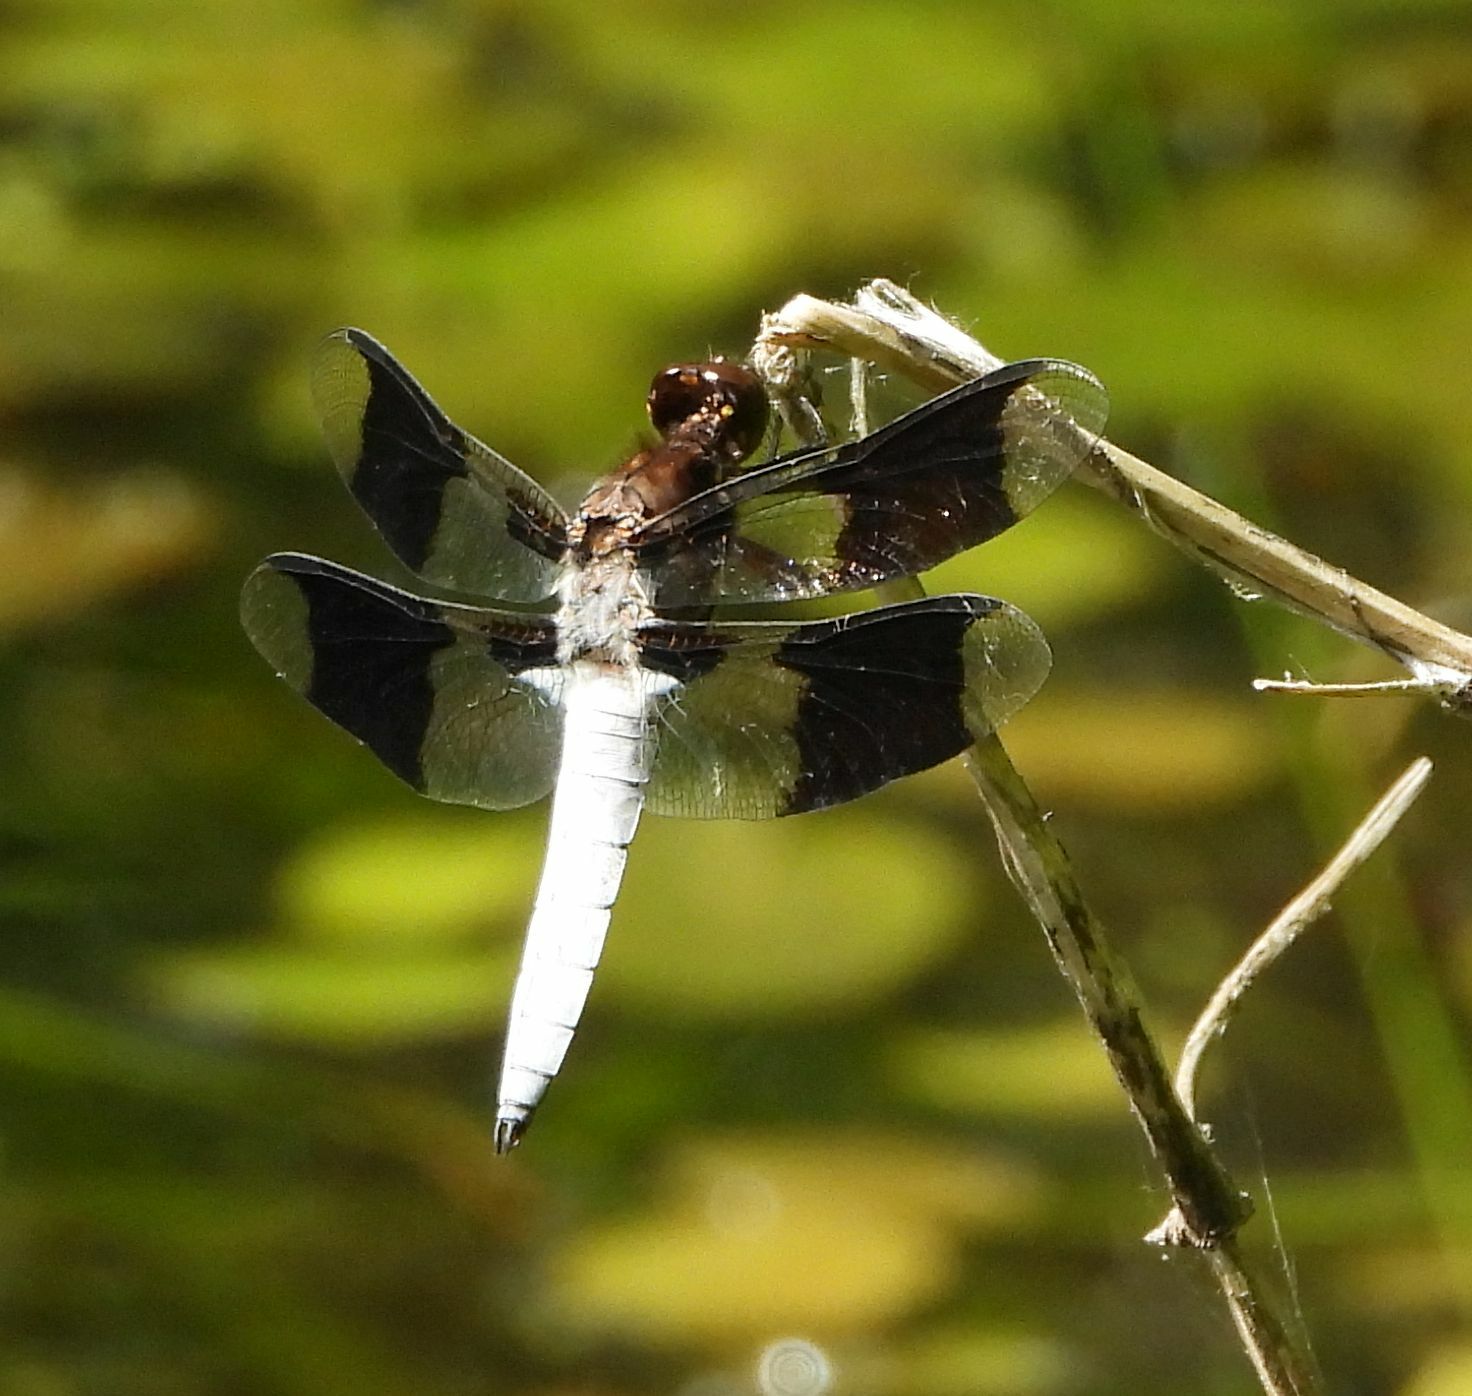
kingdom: Animalia
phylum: Arthropoda
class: Insecta
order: Odonata
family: Libellulidae
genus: Plathemis
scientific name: Plathemis lydia
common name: Common whitetail
